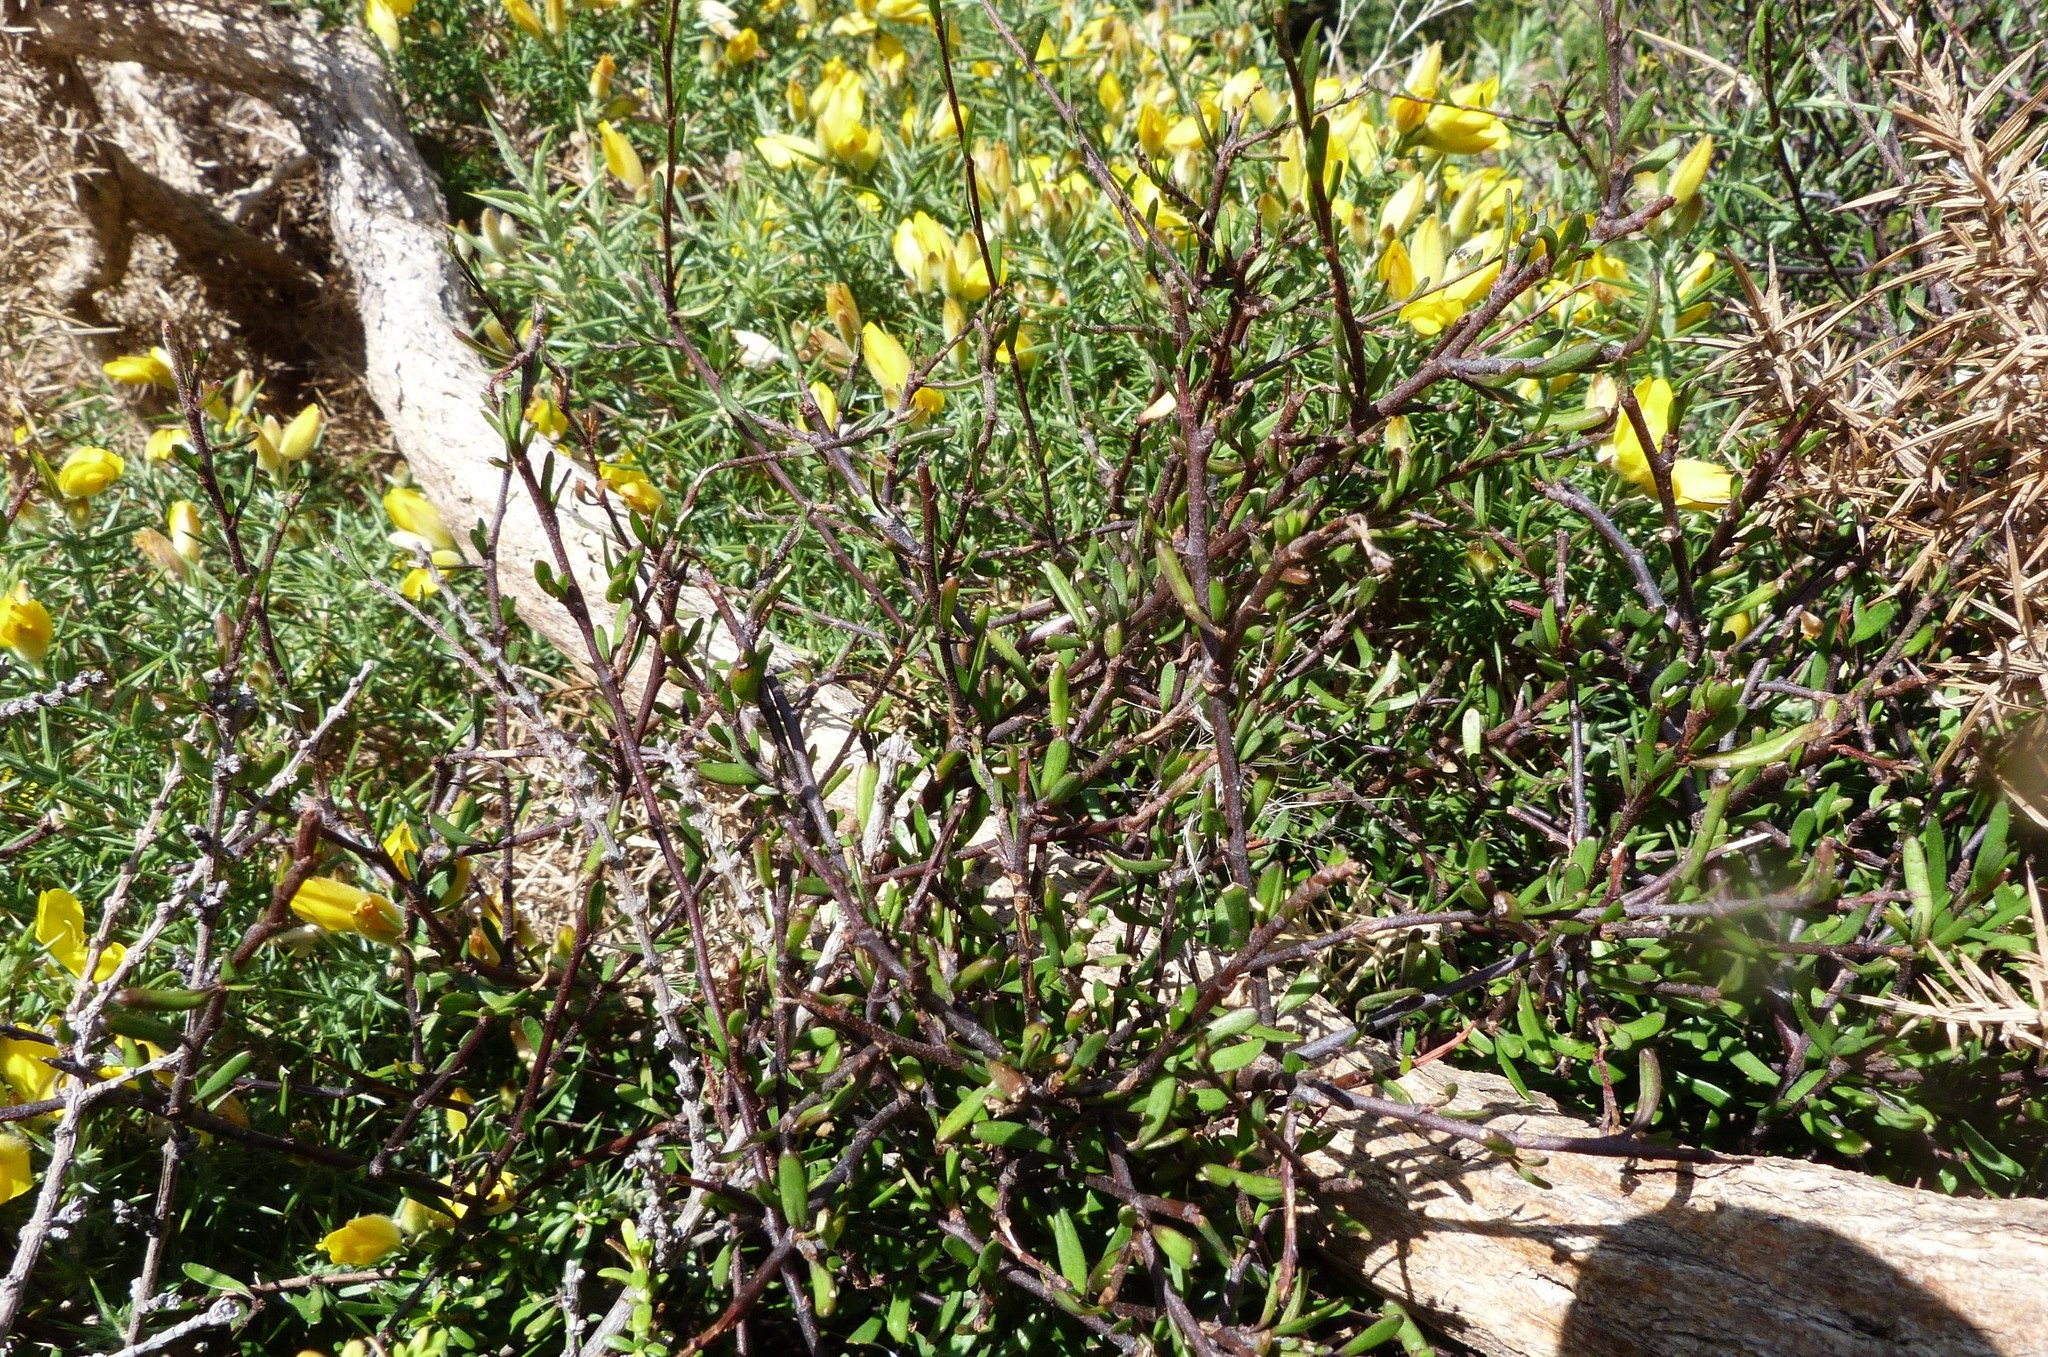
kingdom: Plantae
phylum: Tracheophyta
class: Magnoliopsida
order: Malvales
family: Malvaceae
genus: Plagianthus
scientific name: Plagianthus divaricatus
